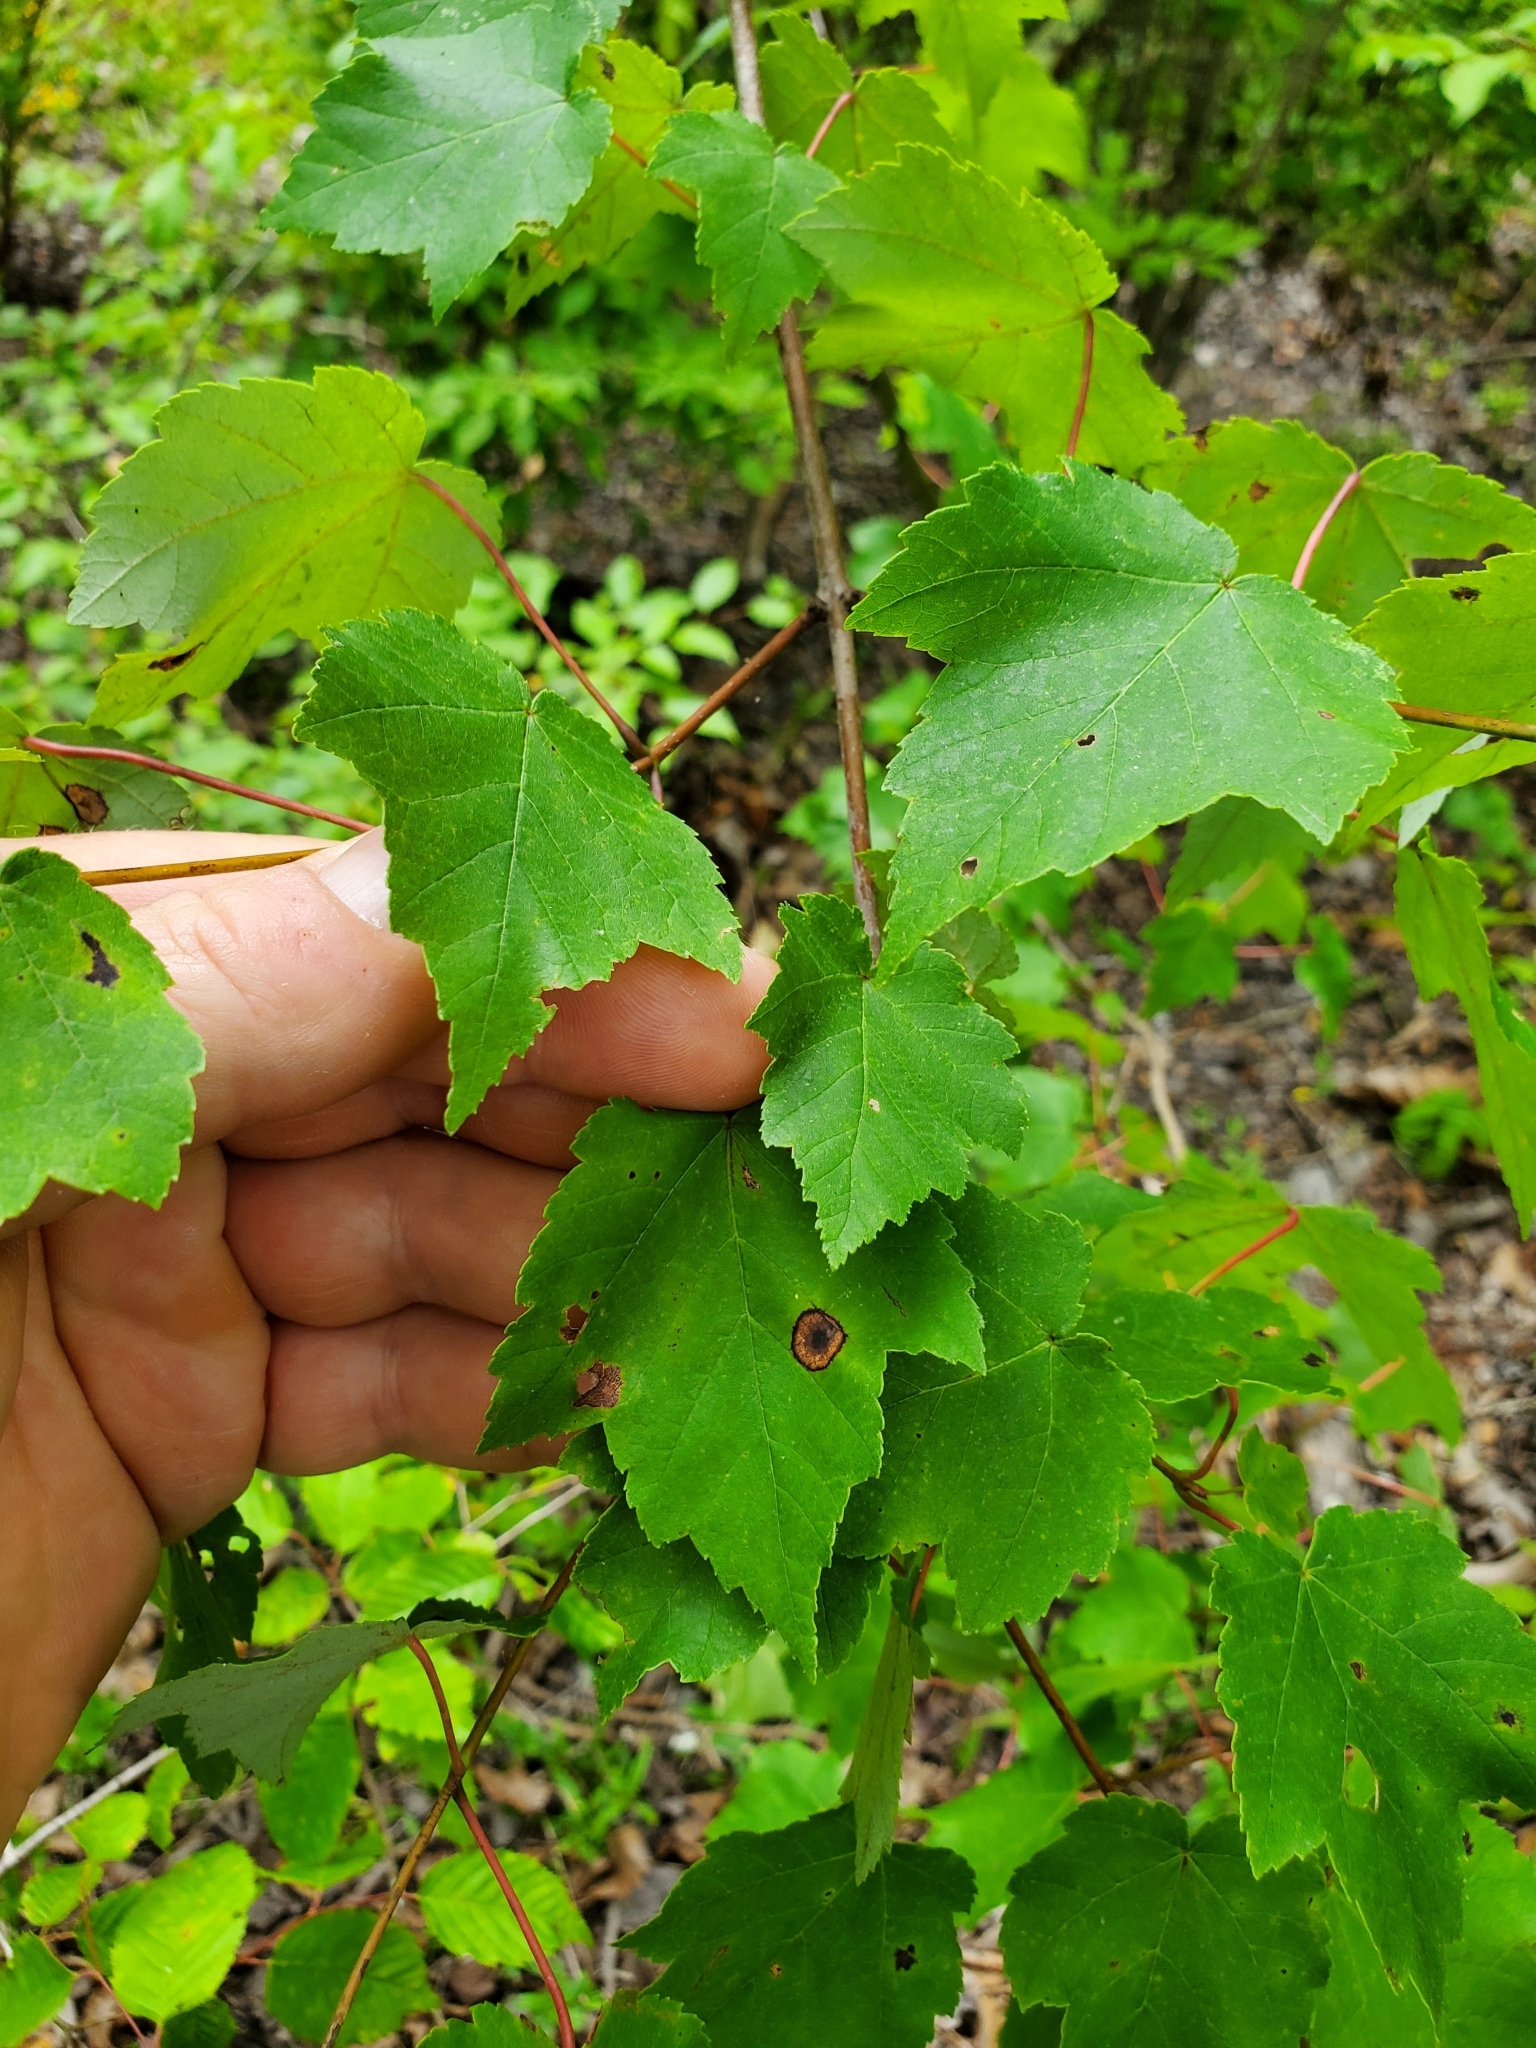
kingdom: Animalia
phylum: Arthropoda
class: Insecta
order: Diptera
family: Cecidomyiidae
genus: Acericecis
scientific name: Acericecis ocellaris
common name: Ocellate gall midge
